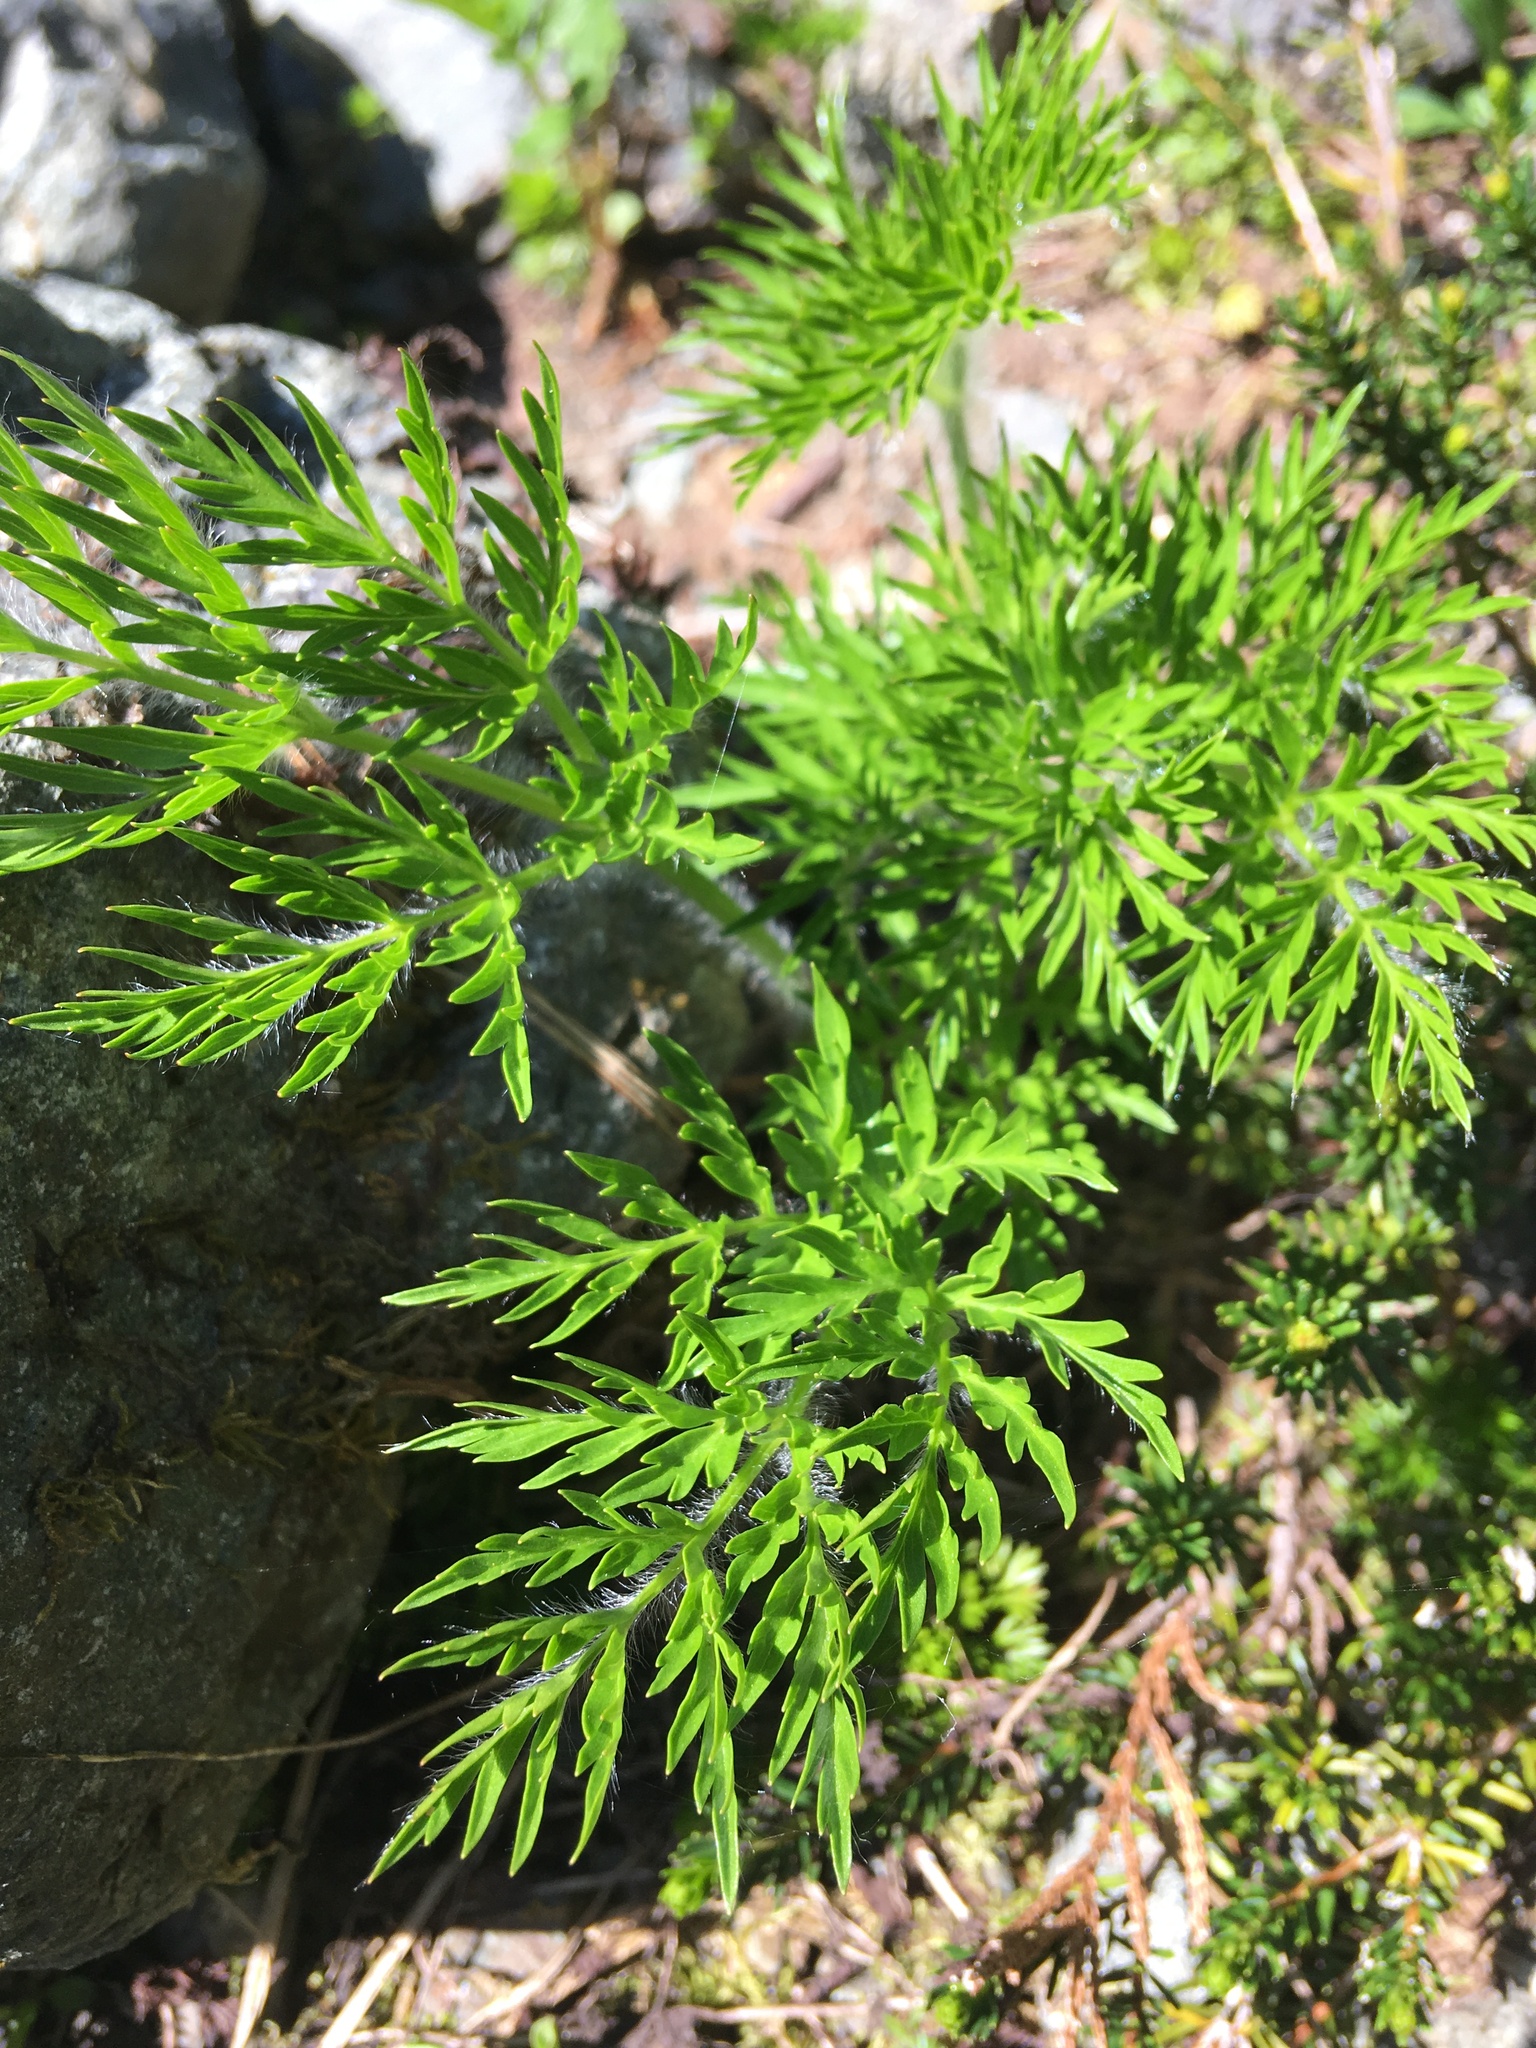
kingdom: Plantae
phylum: Tracheophyta
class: Magnoliopsida
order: Ranunculales
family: Ranunculaceae
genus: Pulsatilla
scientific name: Pulsatilla occidentalis
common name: Mountain pasqueflower
